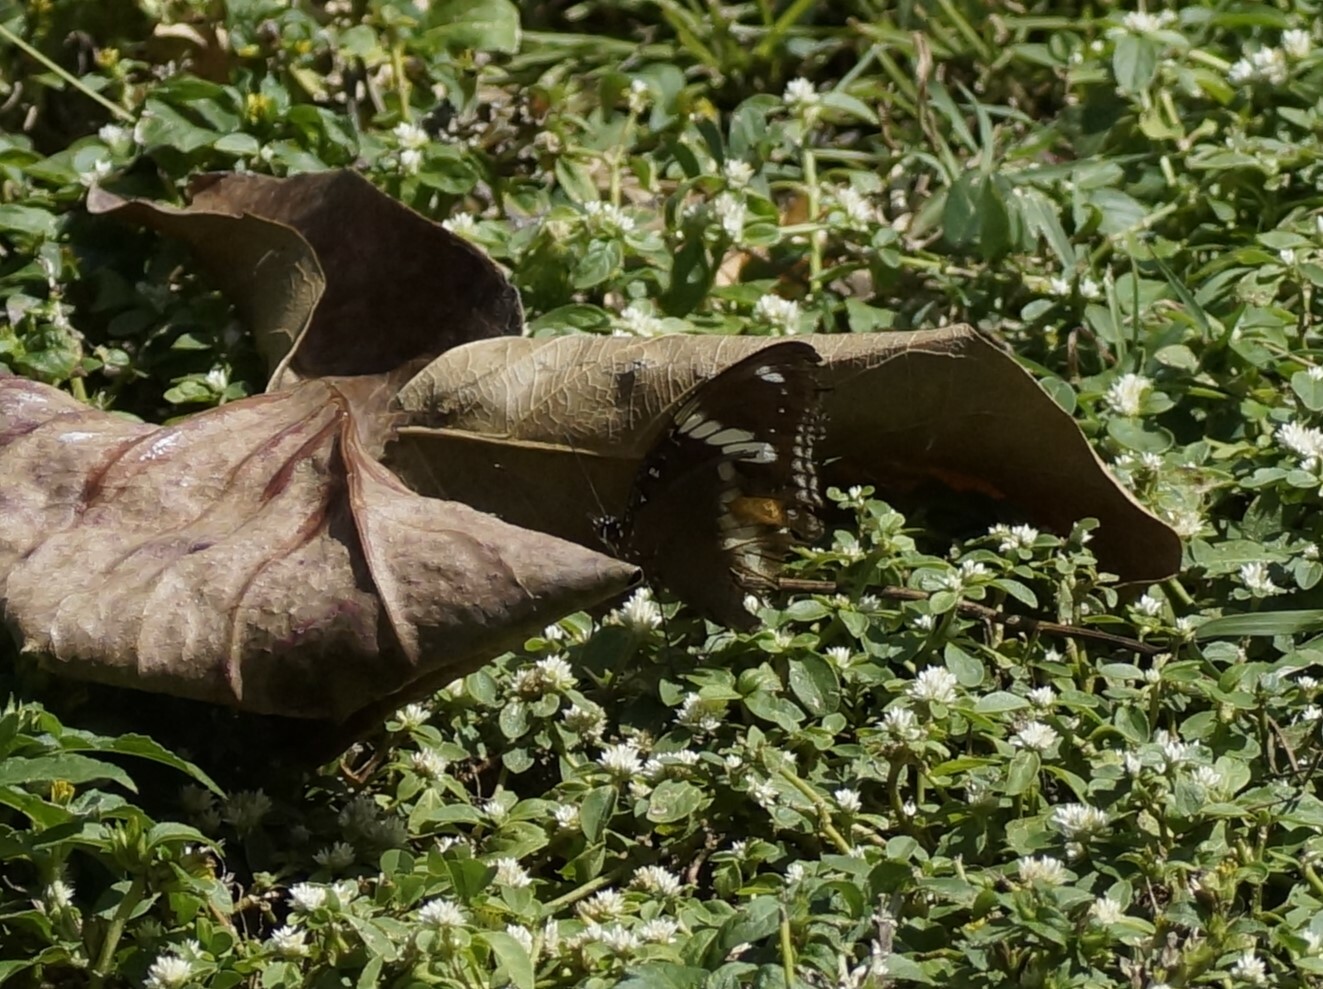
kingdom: Animalia
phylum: Arthropoda
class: Insecta
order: Lepidoptera
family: Nymphalidae
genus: Hypolimnas
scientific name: Hypolimnas bolina
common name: Great eggfly
